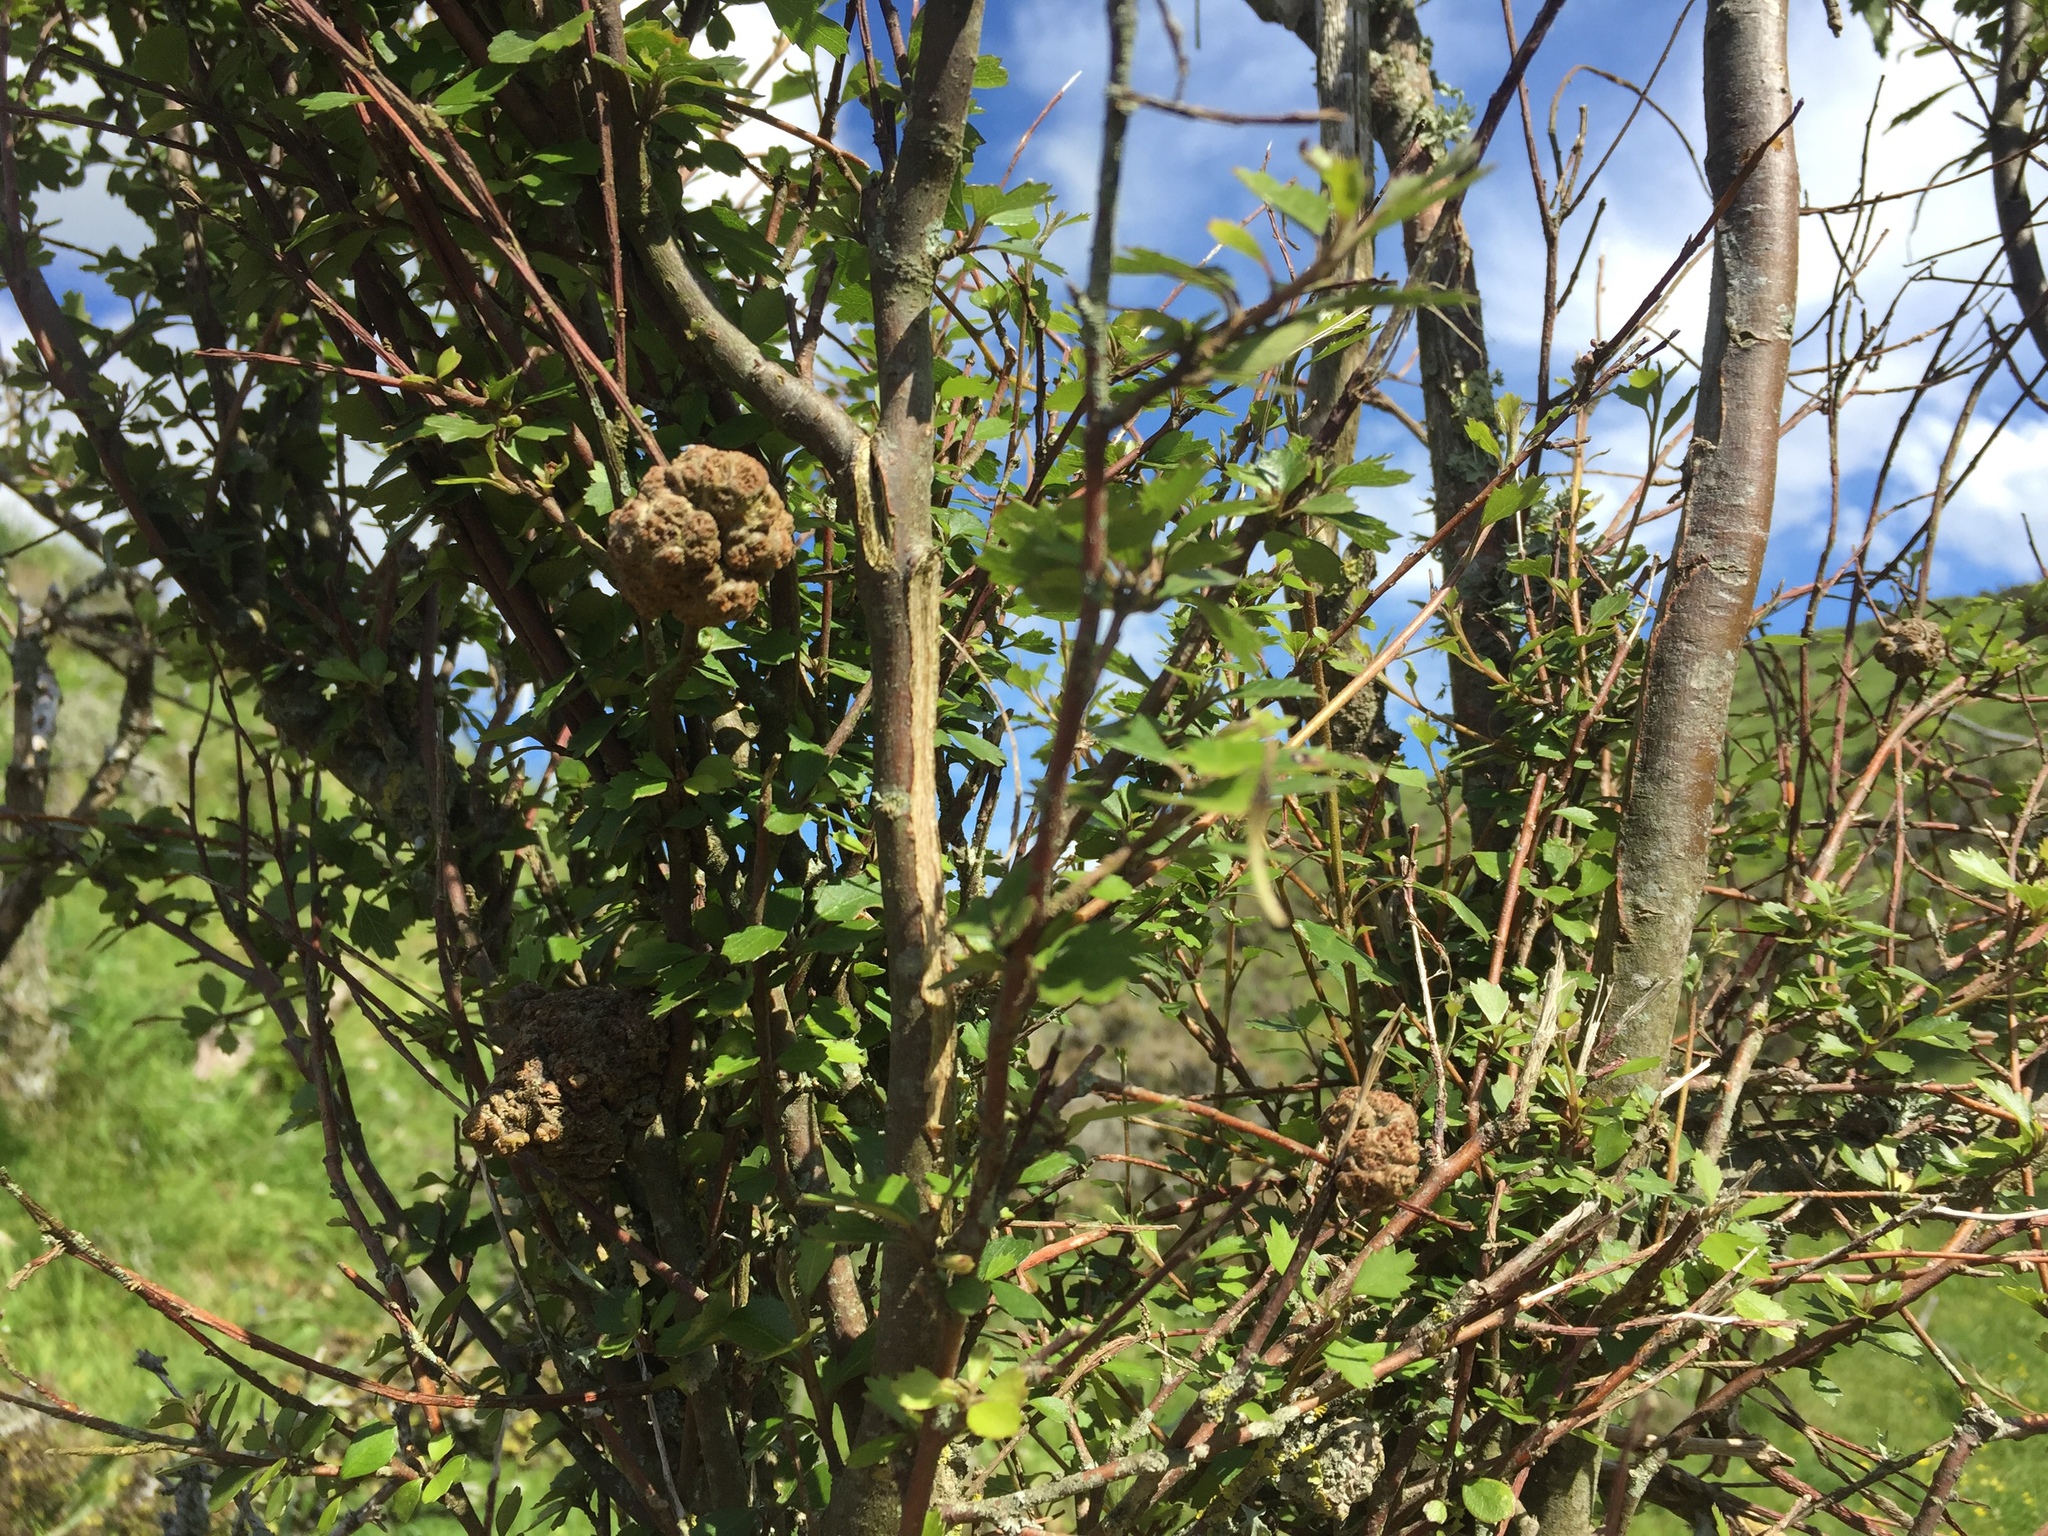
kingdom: Plantae
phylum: Tracheophyta
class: Magnoliopsida
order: Malvales
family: Malvaceae
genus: Hoheria
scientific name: Hoheria sexstylosa
